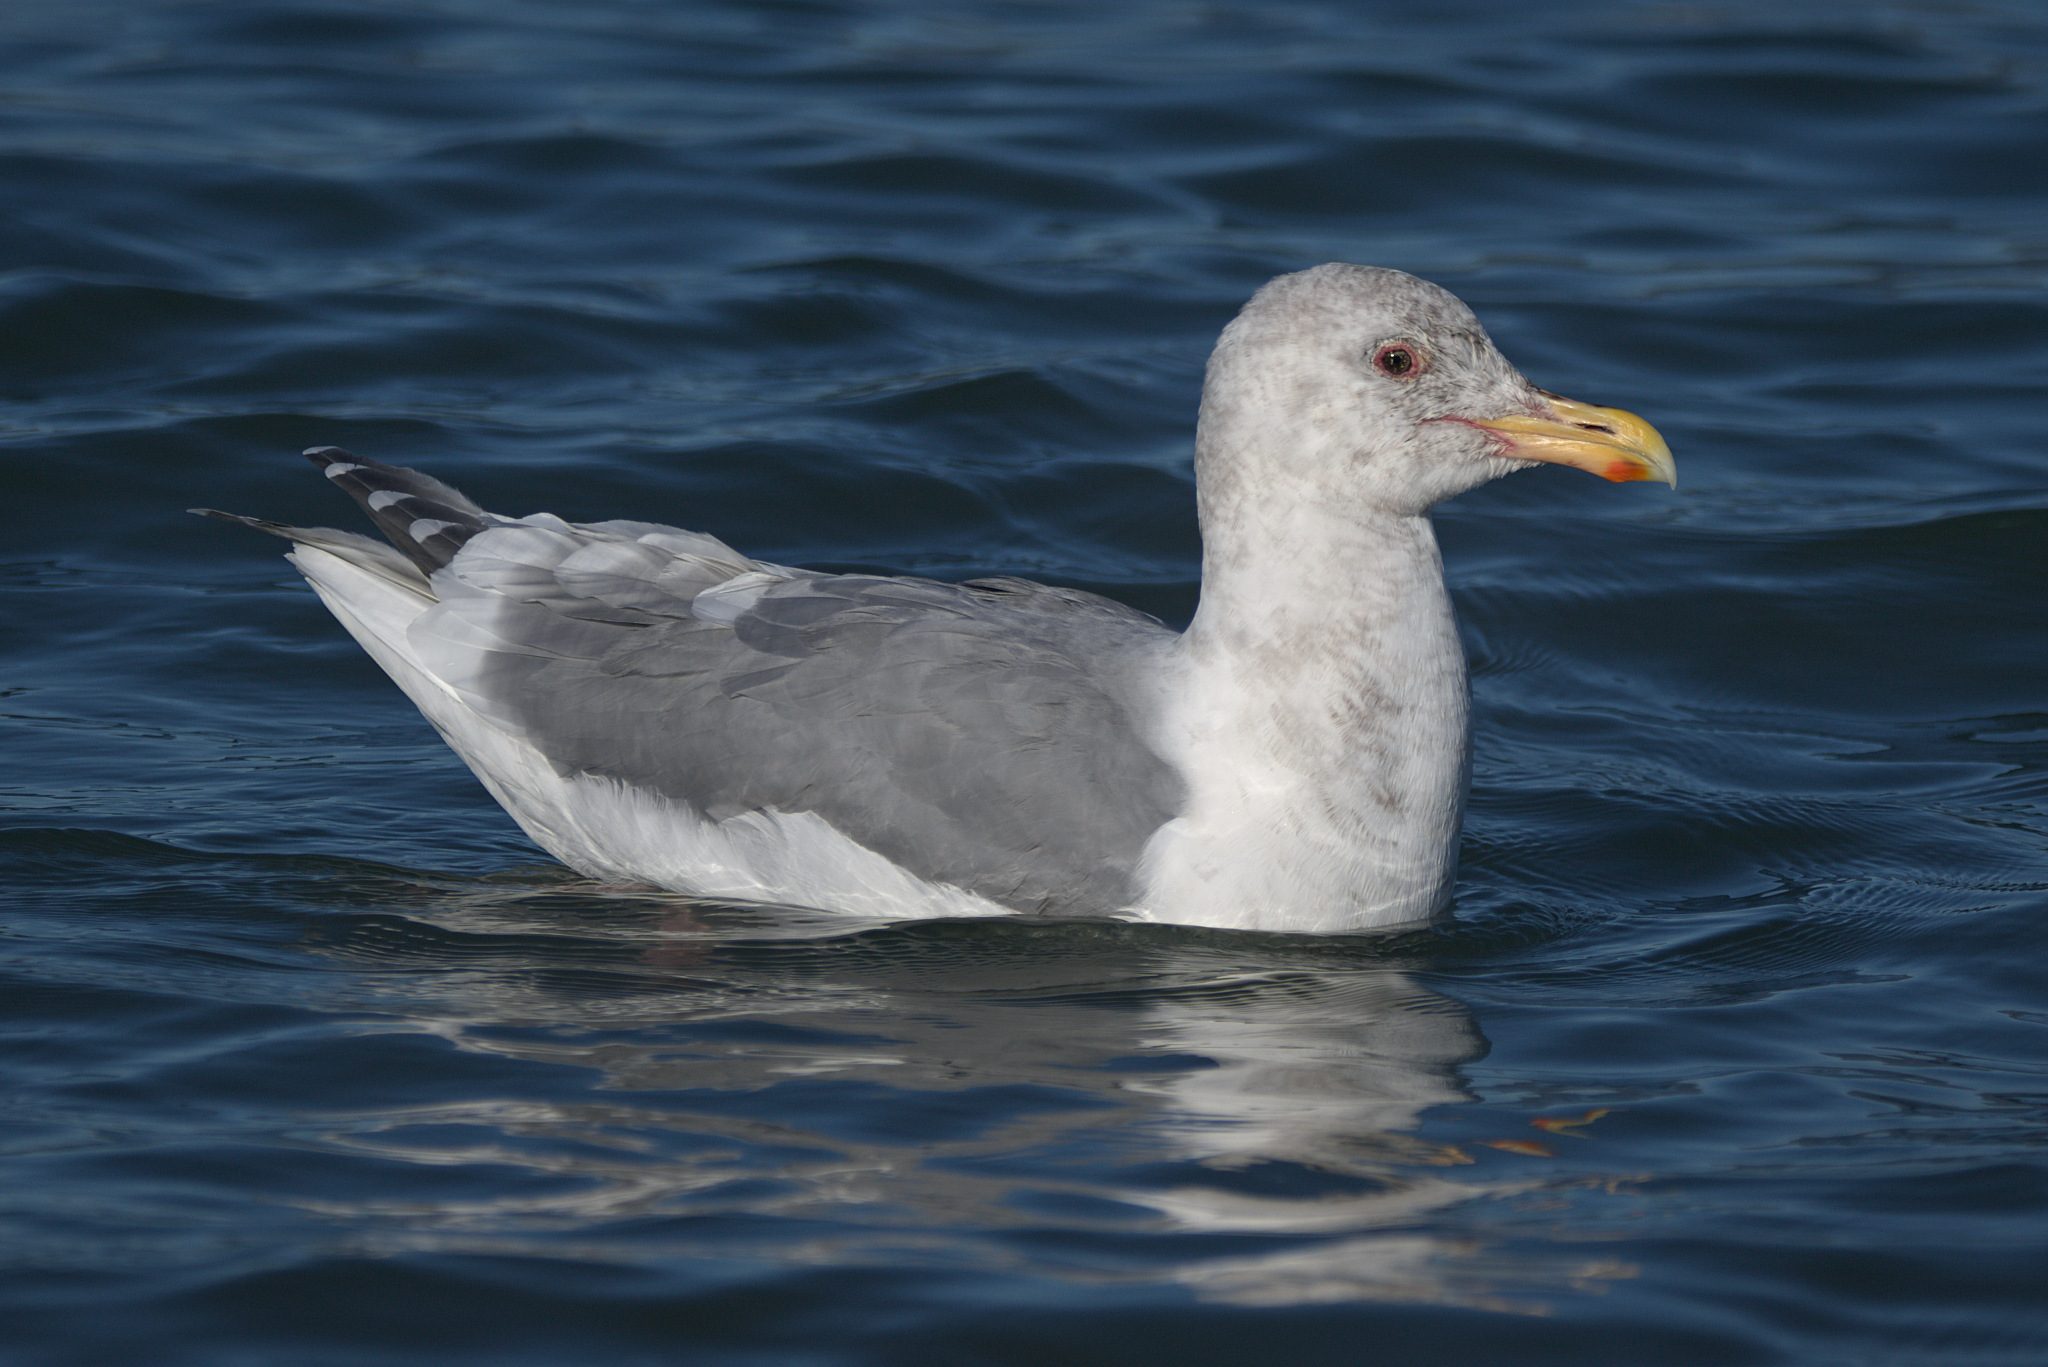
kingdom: Animalia
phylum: Chordata
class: Aves
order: Charadriiformes
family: Laridae
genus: Larus
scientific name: Larus
